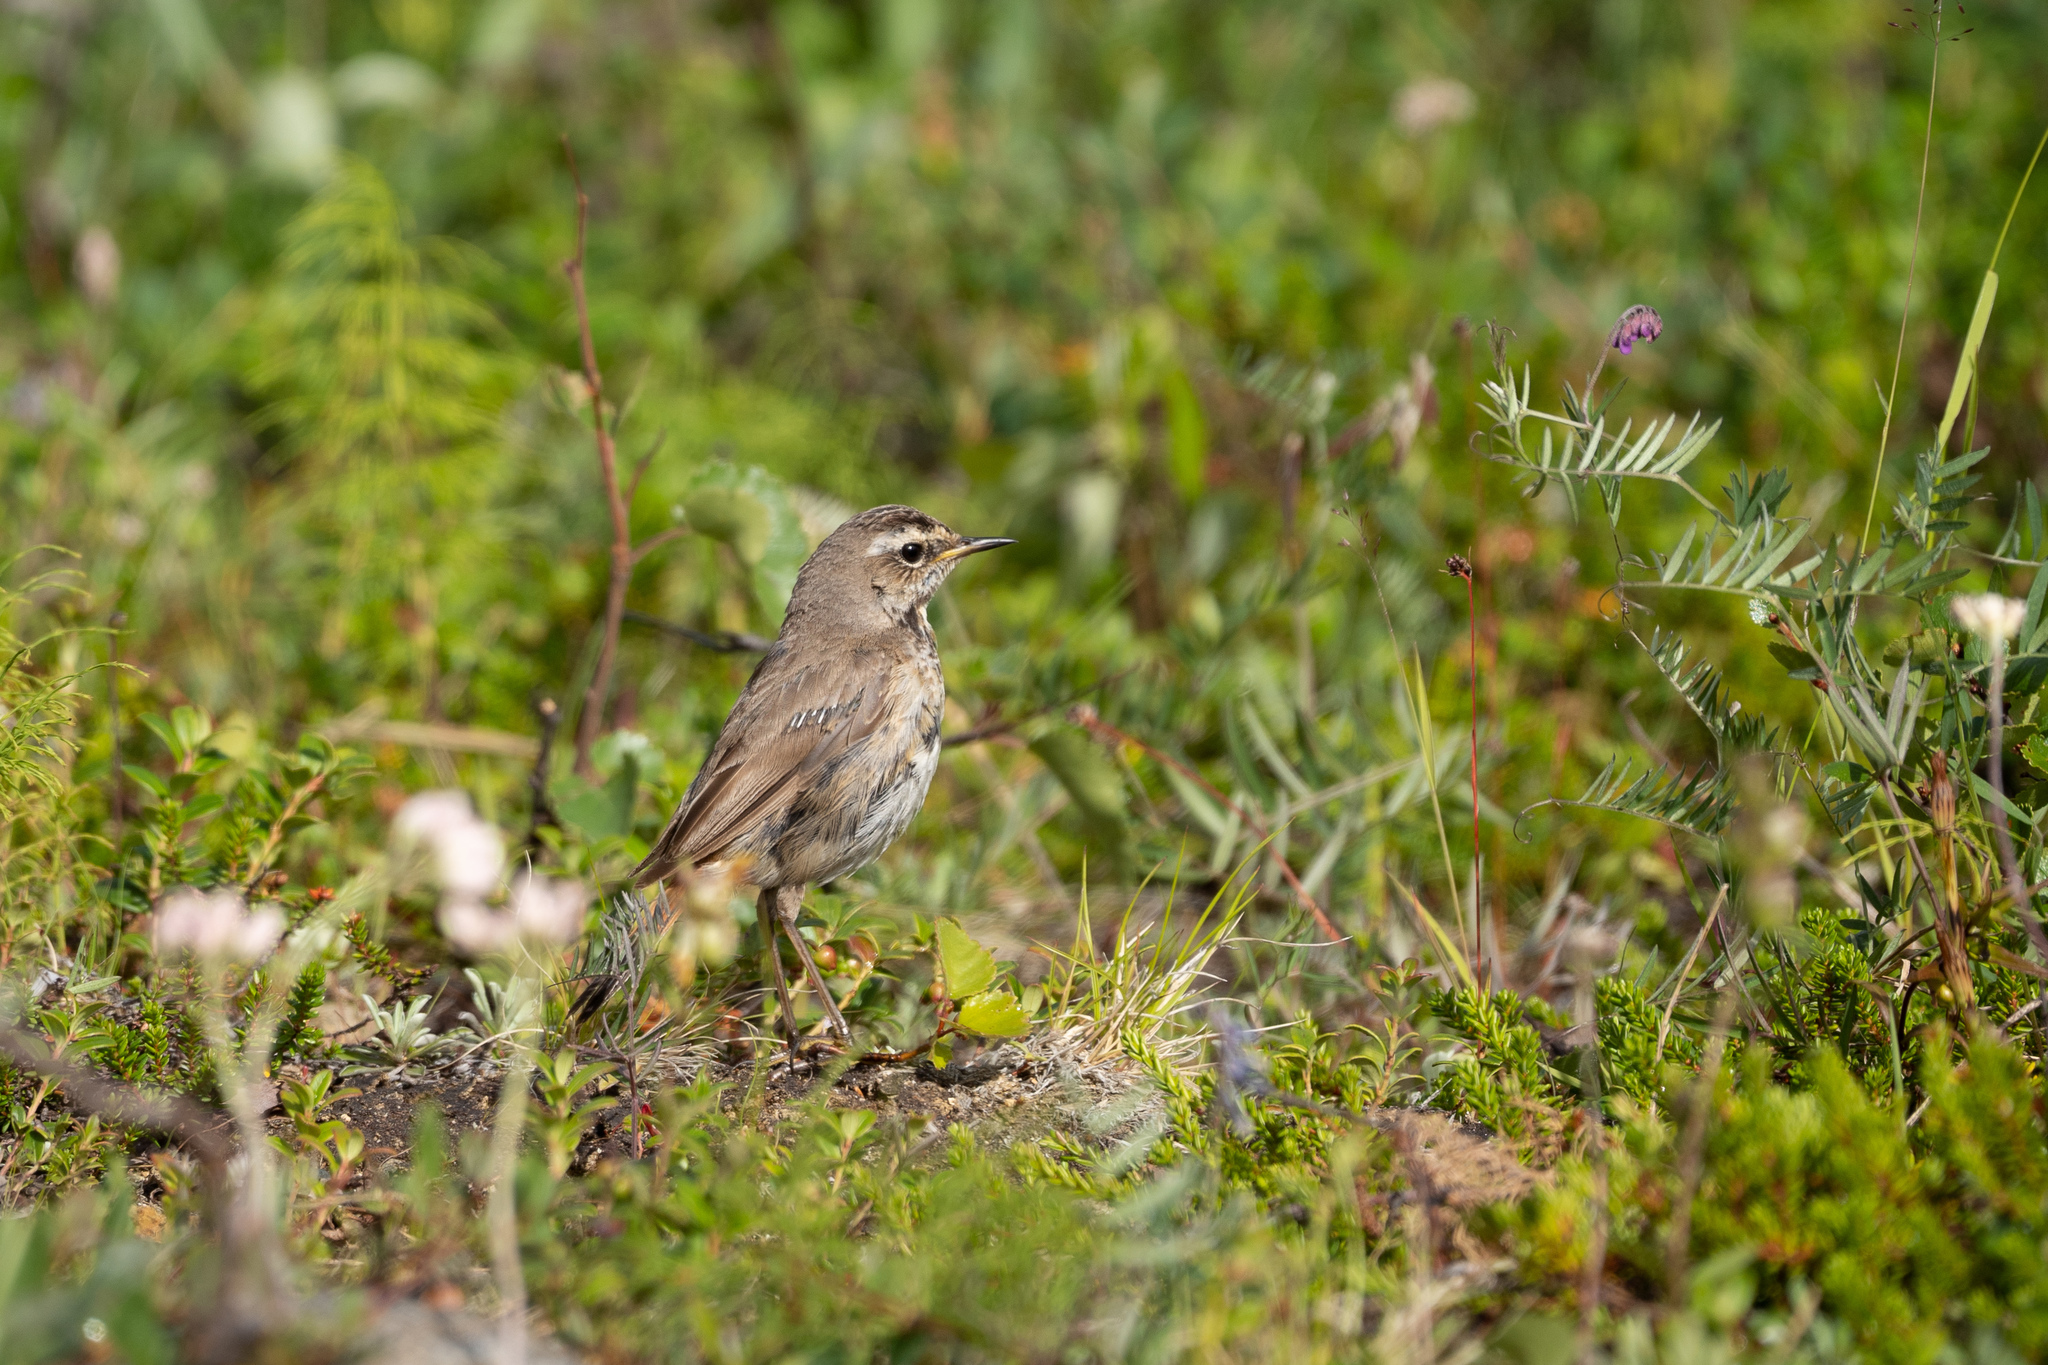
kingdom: Animalia
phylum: Chordata
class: Aves
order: Passeriformes
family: Muscicapidae
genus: Luscinia
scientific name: Luscinia svecica
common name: Bluethroat
